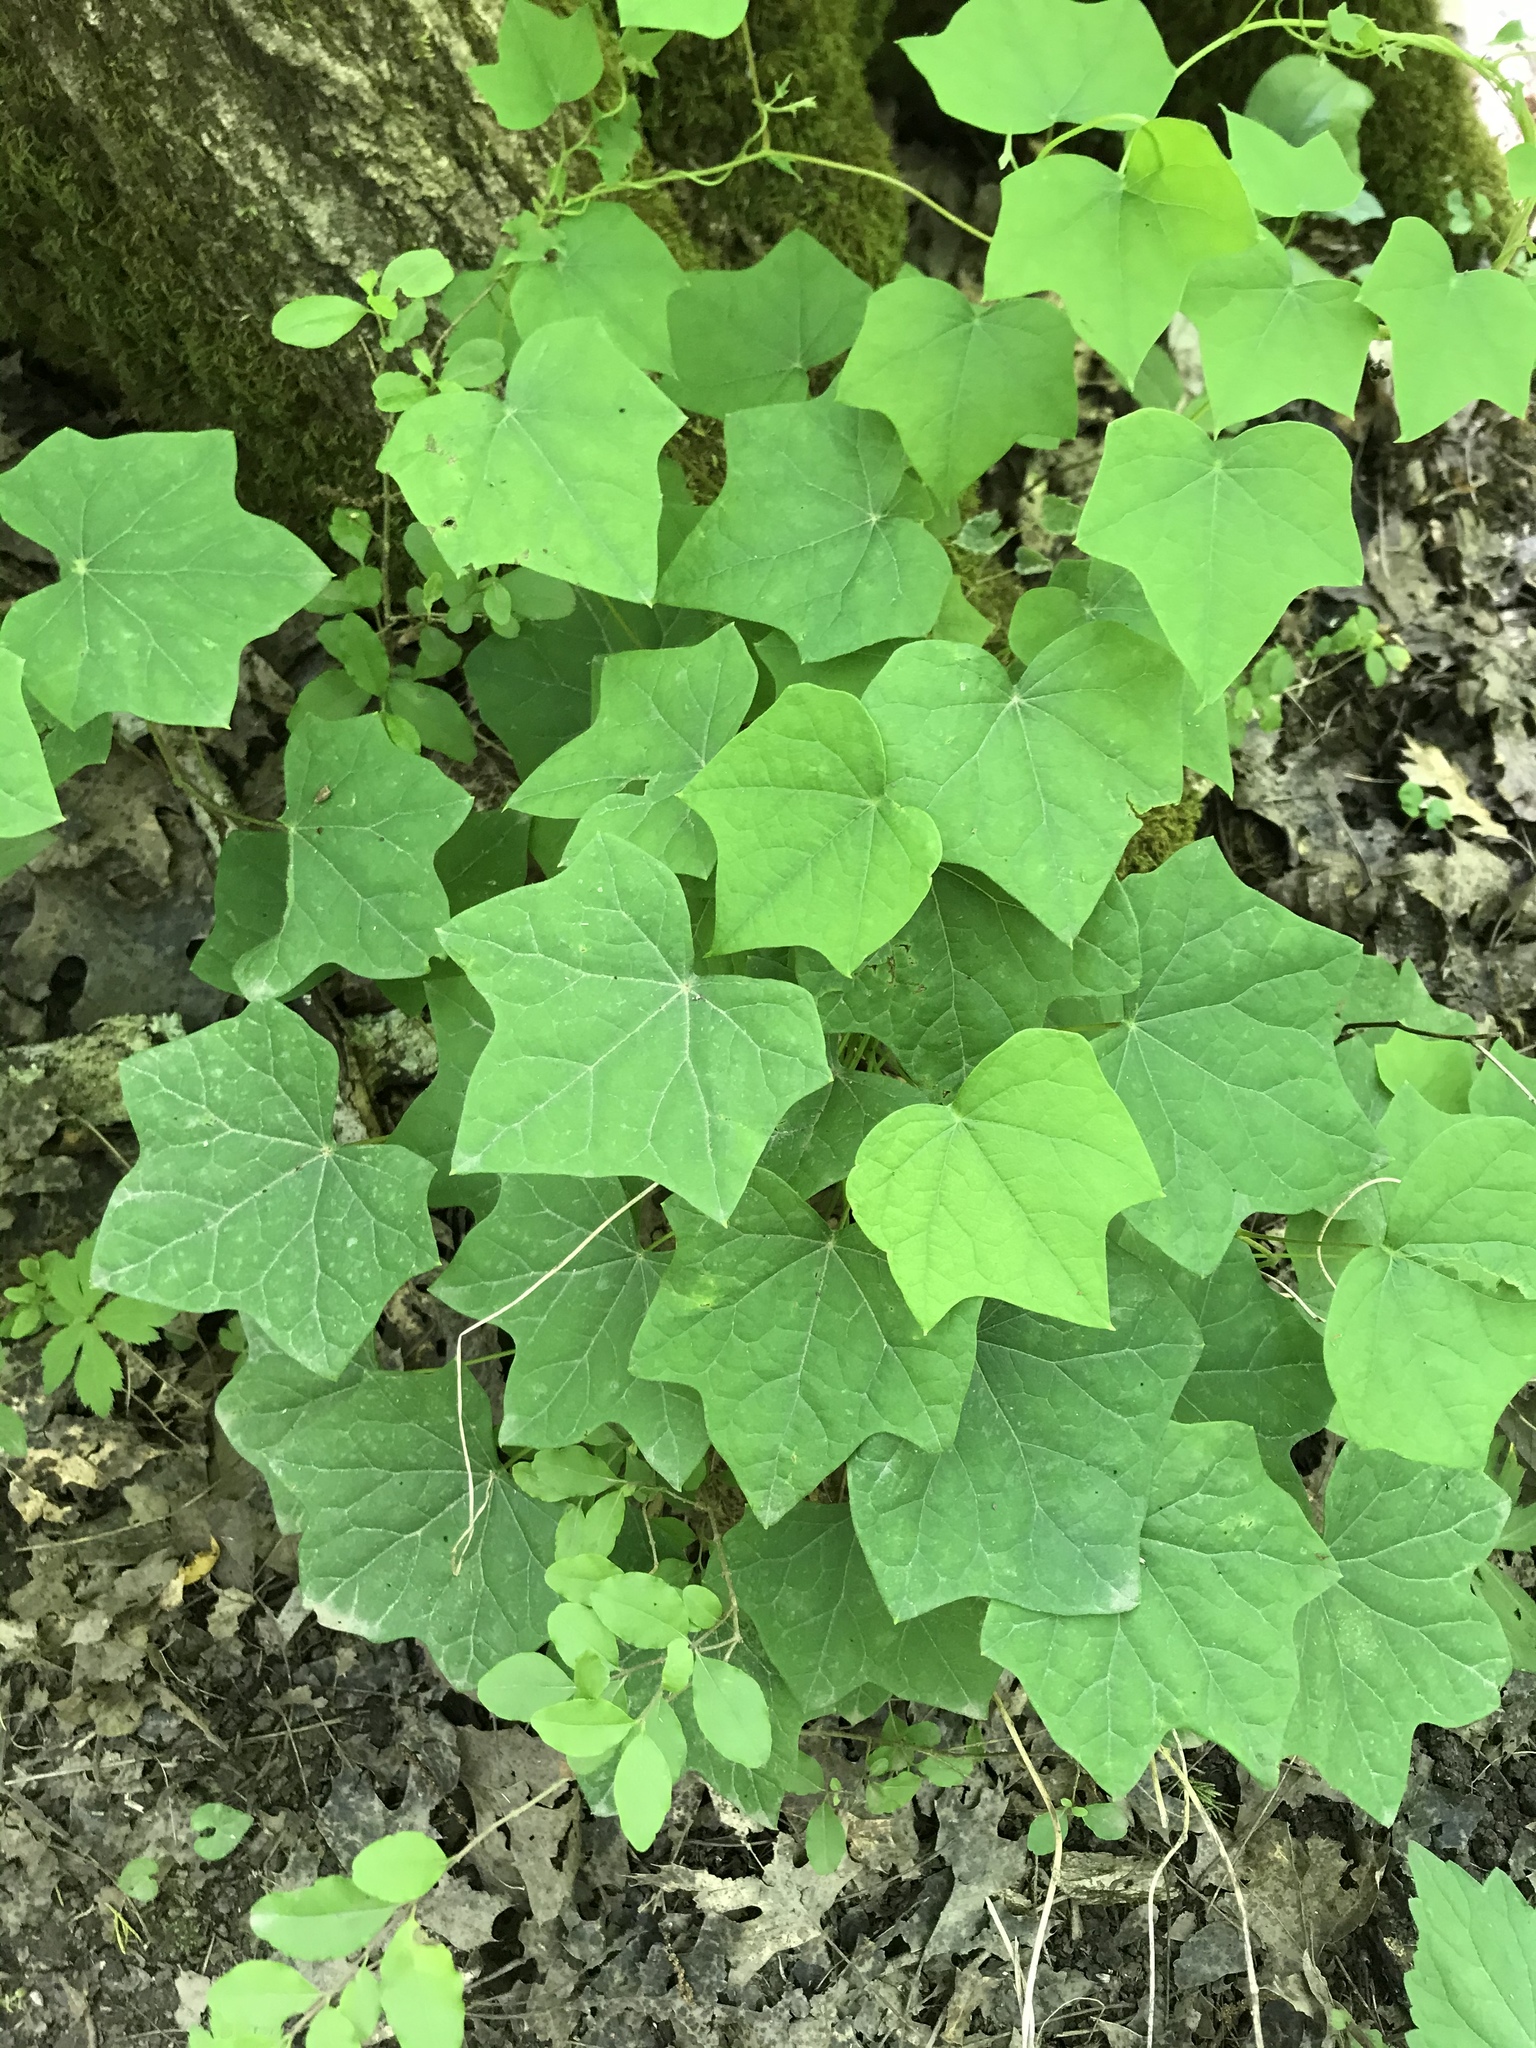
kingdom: Plantae
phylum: Tracheophyta
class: Magnoliopsida
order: Ranunculales
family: Menispermaceae
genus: Menispermum
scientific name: Menispermum canadense
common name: Moonseed
